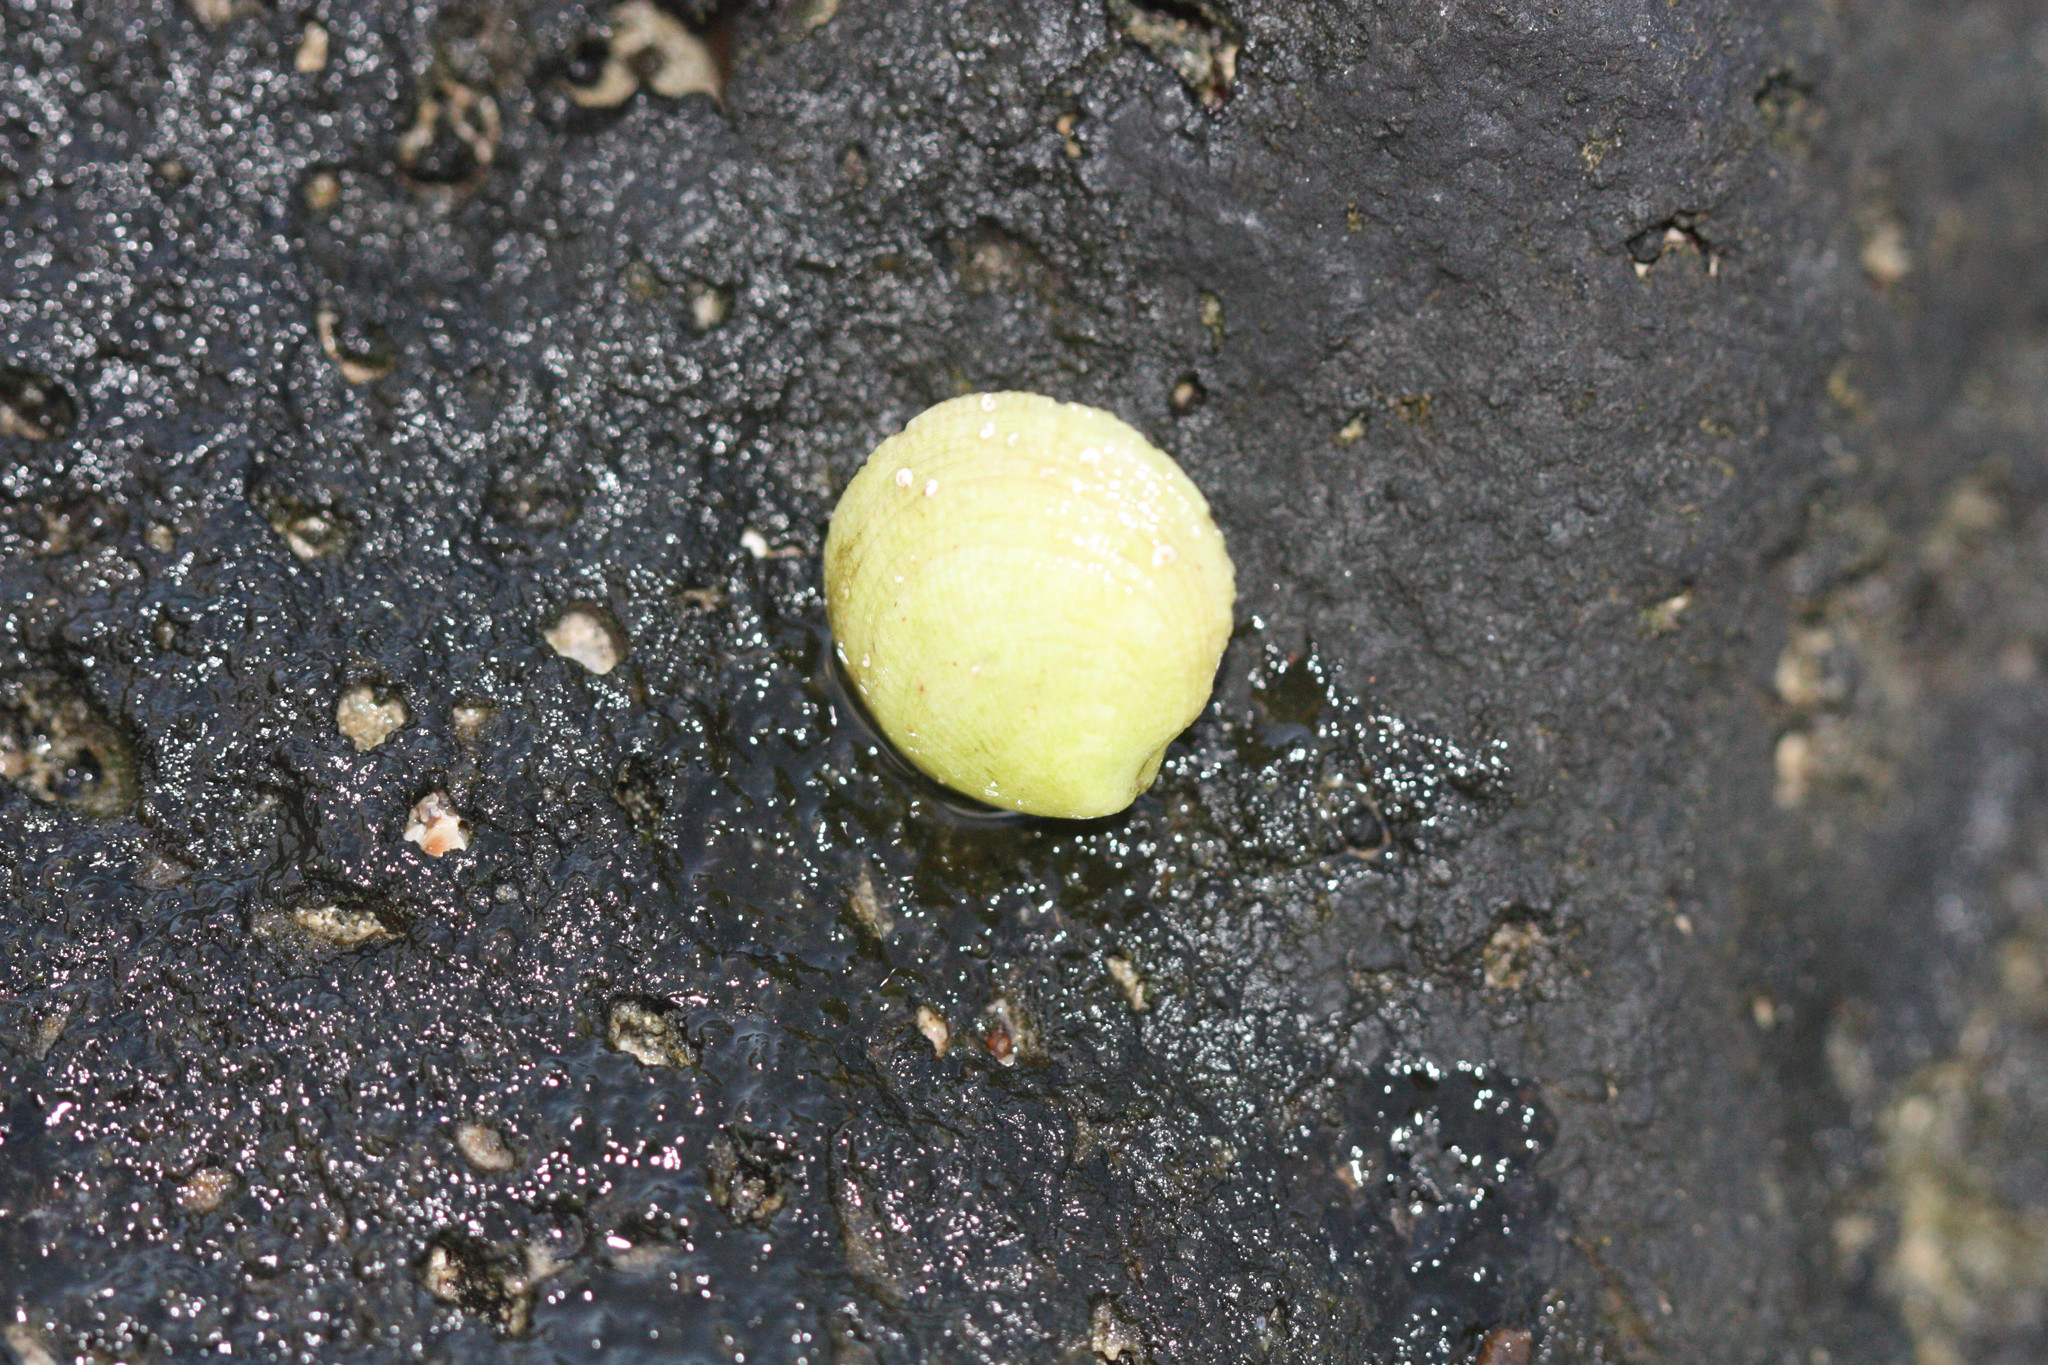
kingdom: Animalia
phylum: Mollusca
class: Bivalvia
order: Lucinida
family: Lucinidae
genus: Ctena
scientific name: Ctena bella
